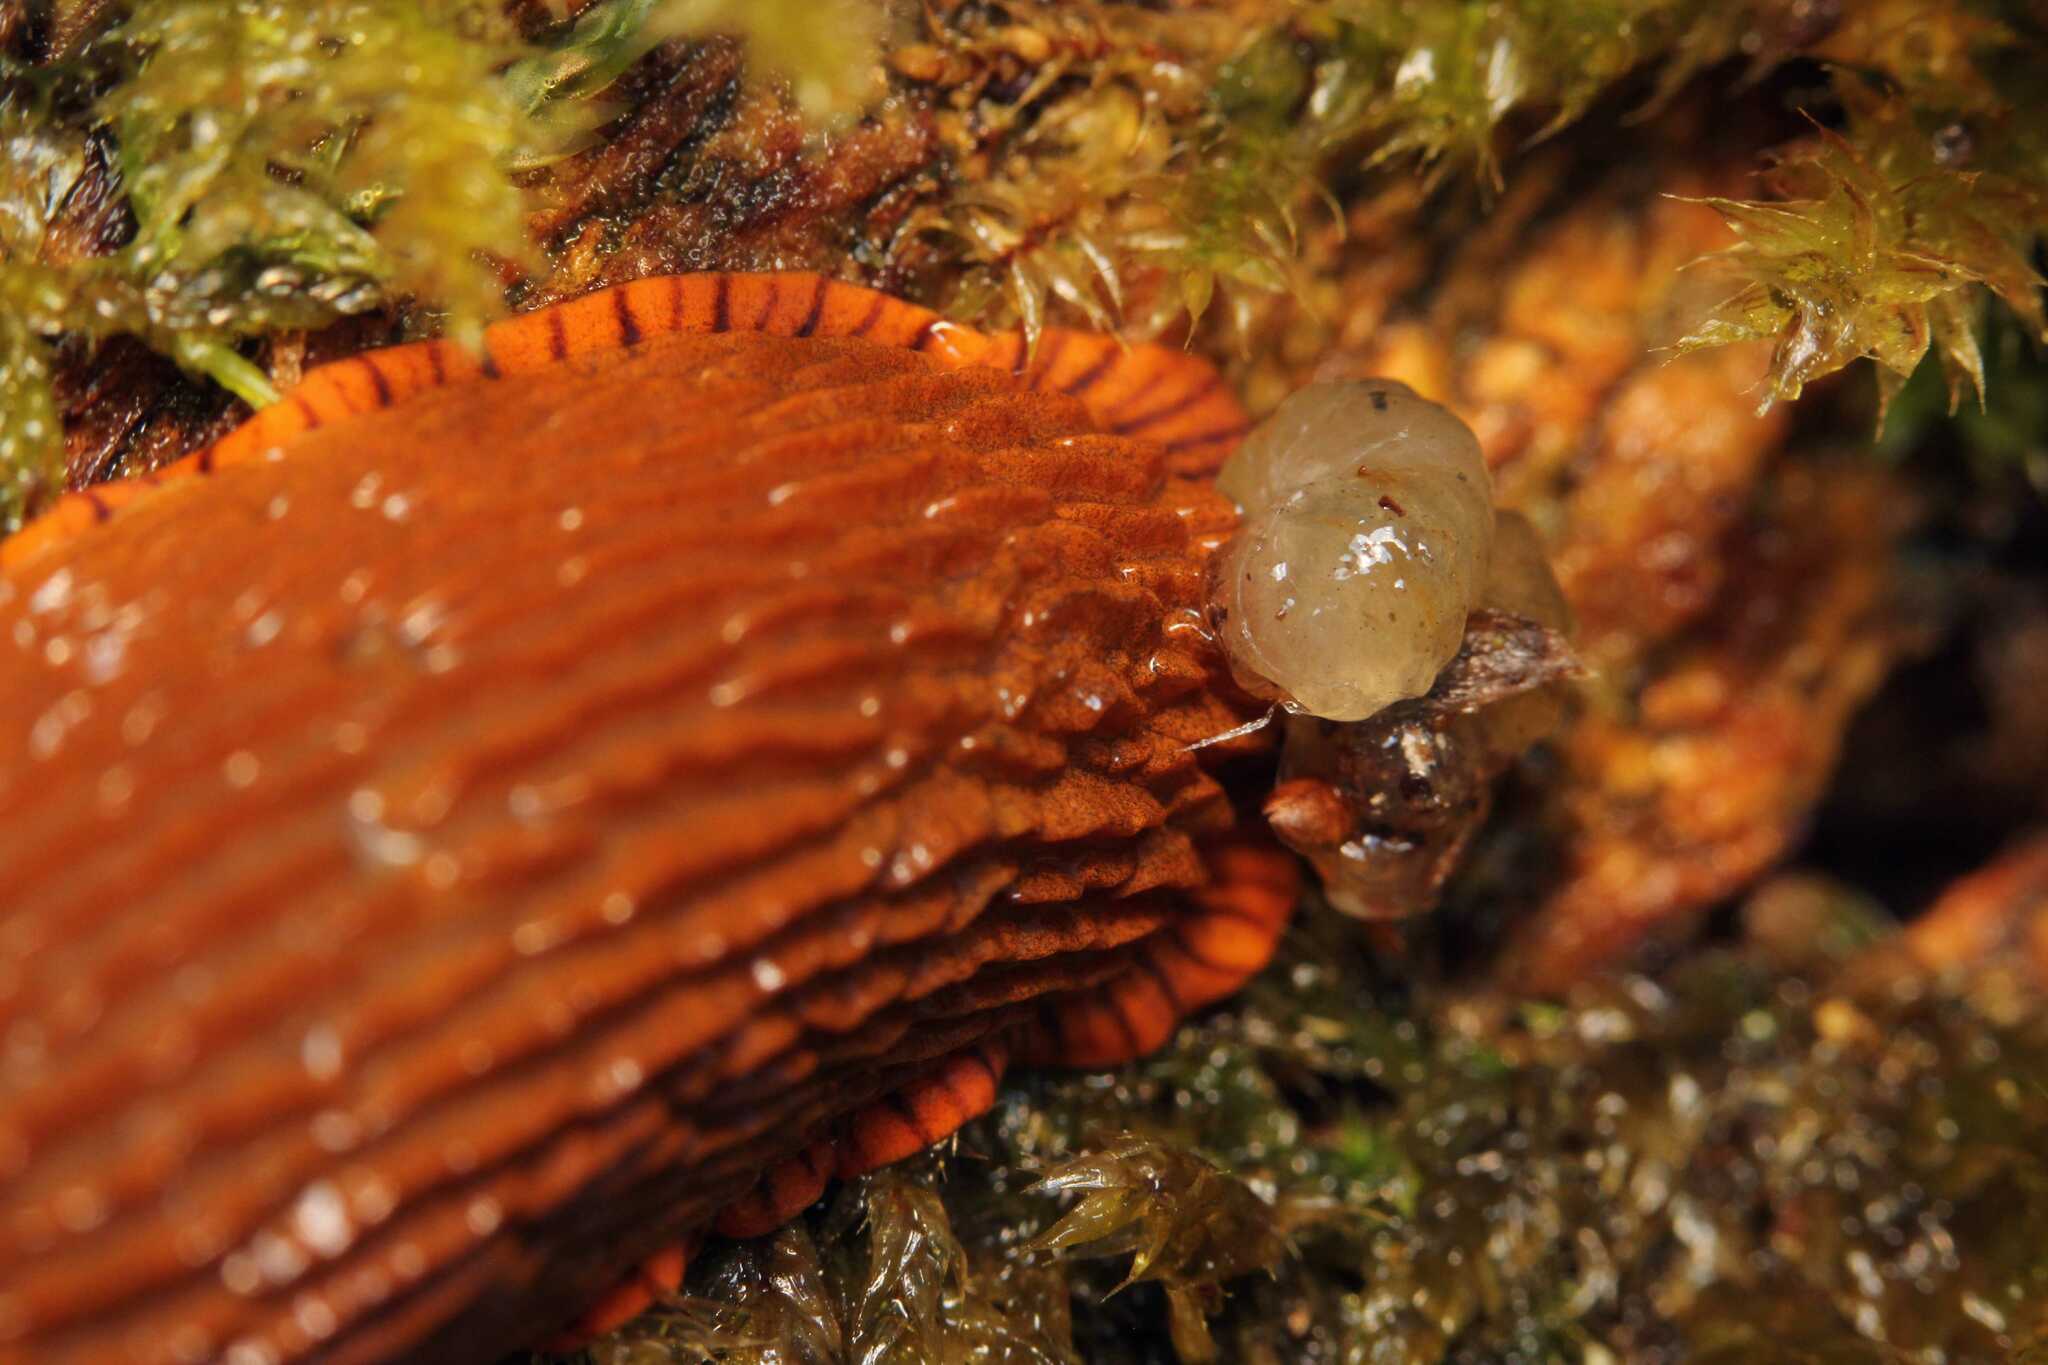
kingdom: Animalia
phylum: Mollusca
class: Gastropoda
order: Stylommatophora
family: Arionidae
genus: Arion
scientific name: Arion vulgaris
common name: Lusitanian slug
